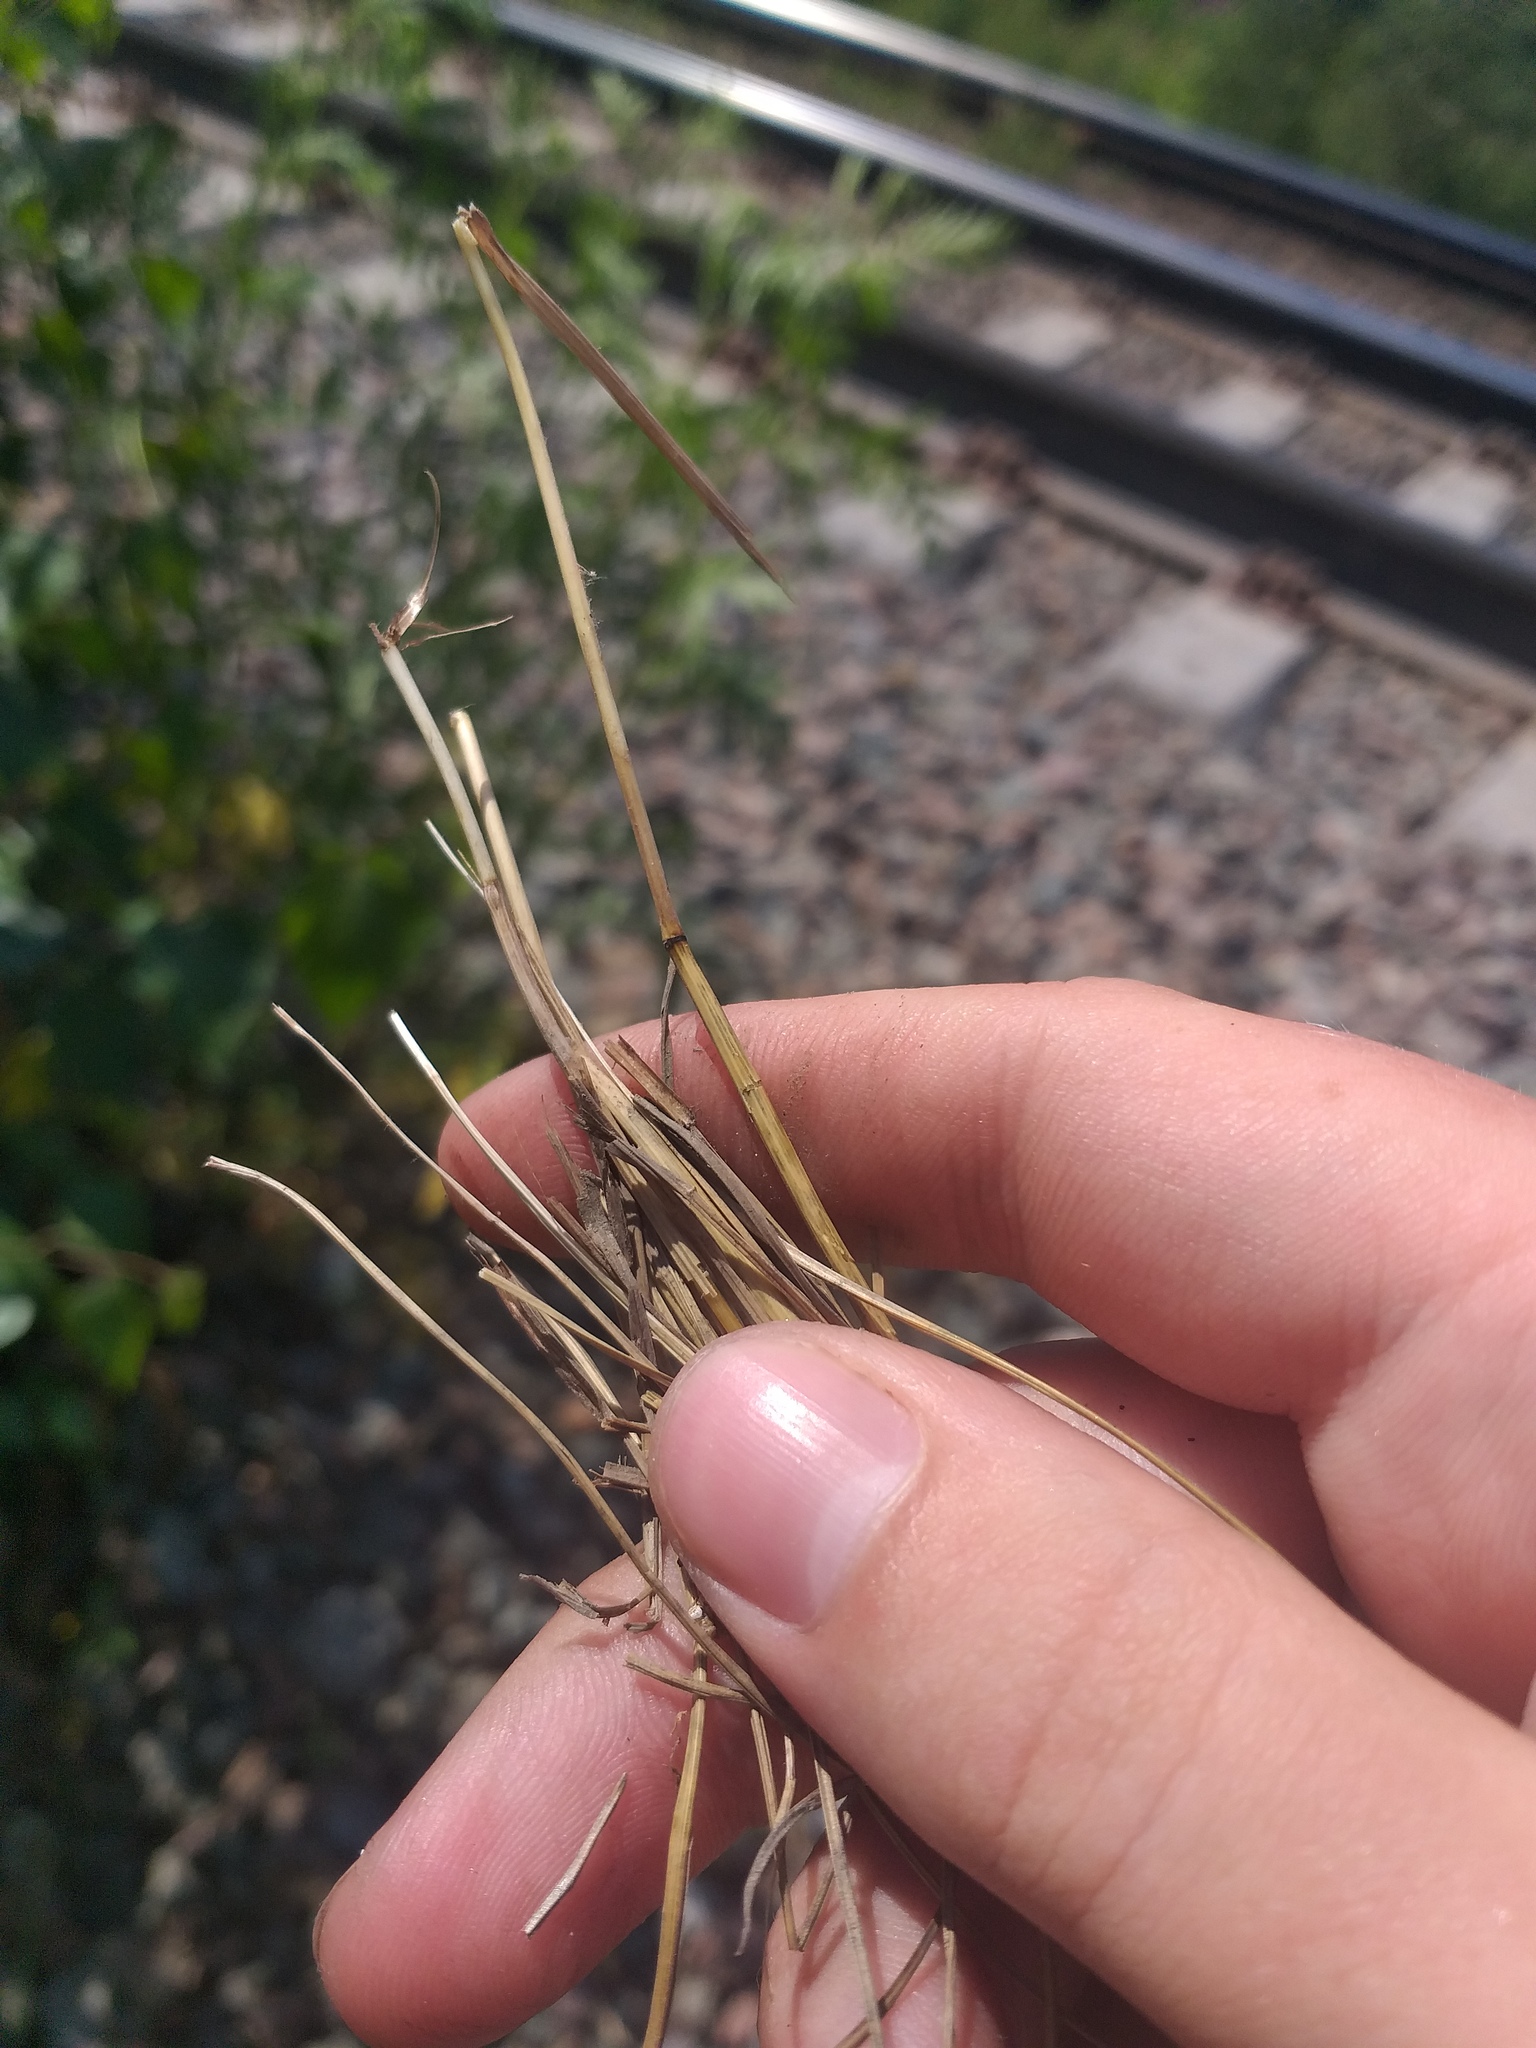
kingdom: Plantae
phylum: Tracheophyta
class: Liliopsida
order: Poales
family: Poaceae
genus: Festuca
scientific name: Festuca rubra
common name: Red fescue
